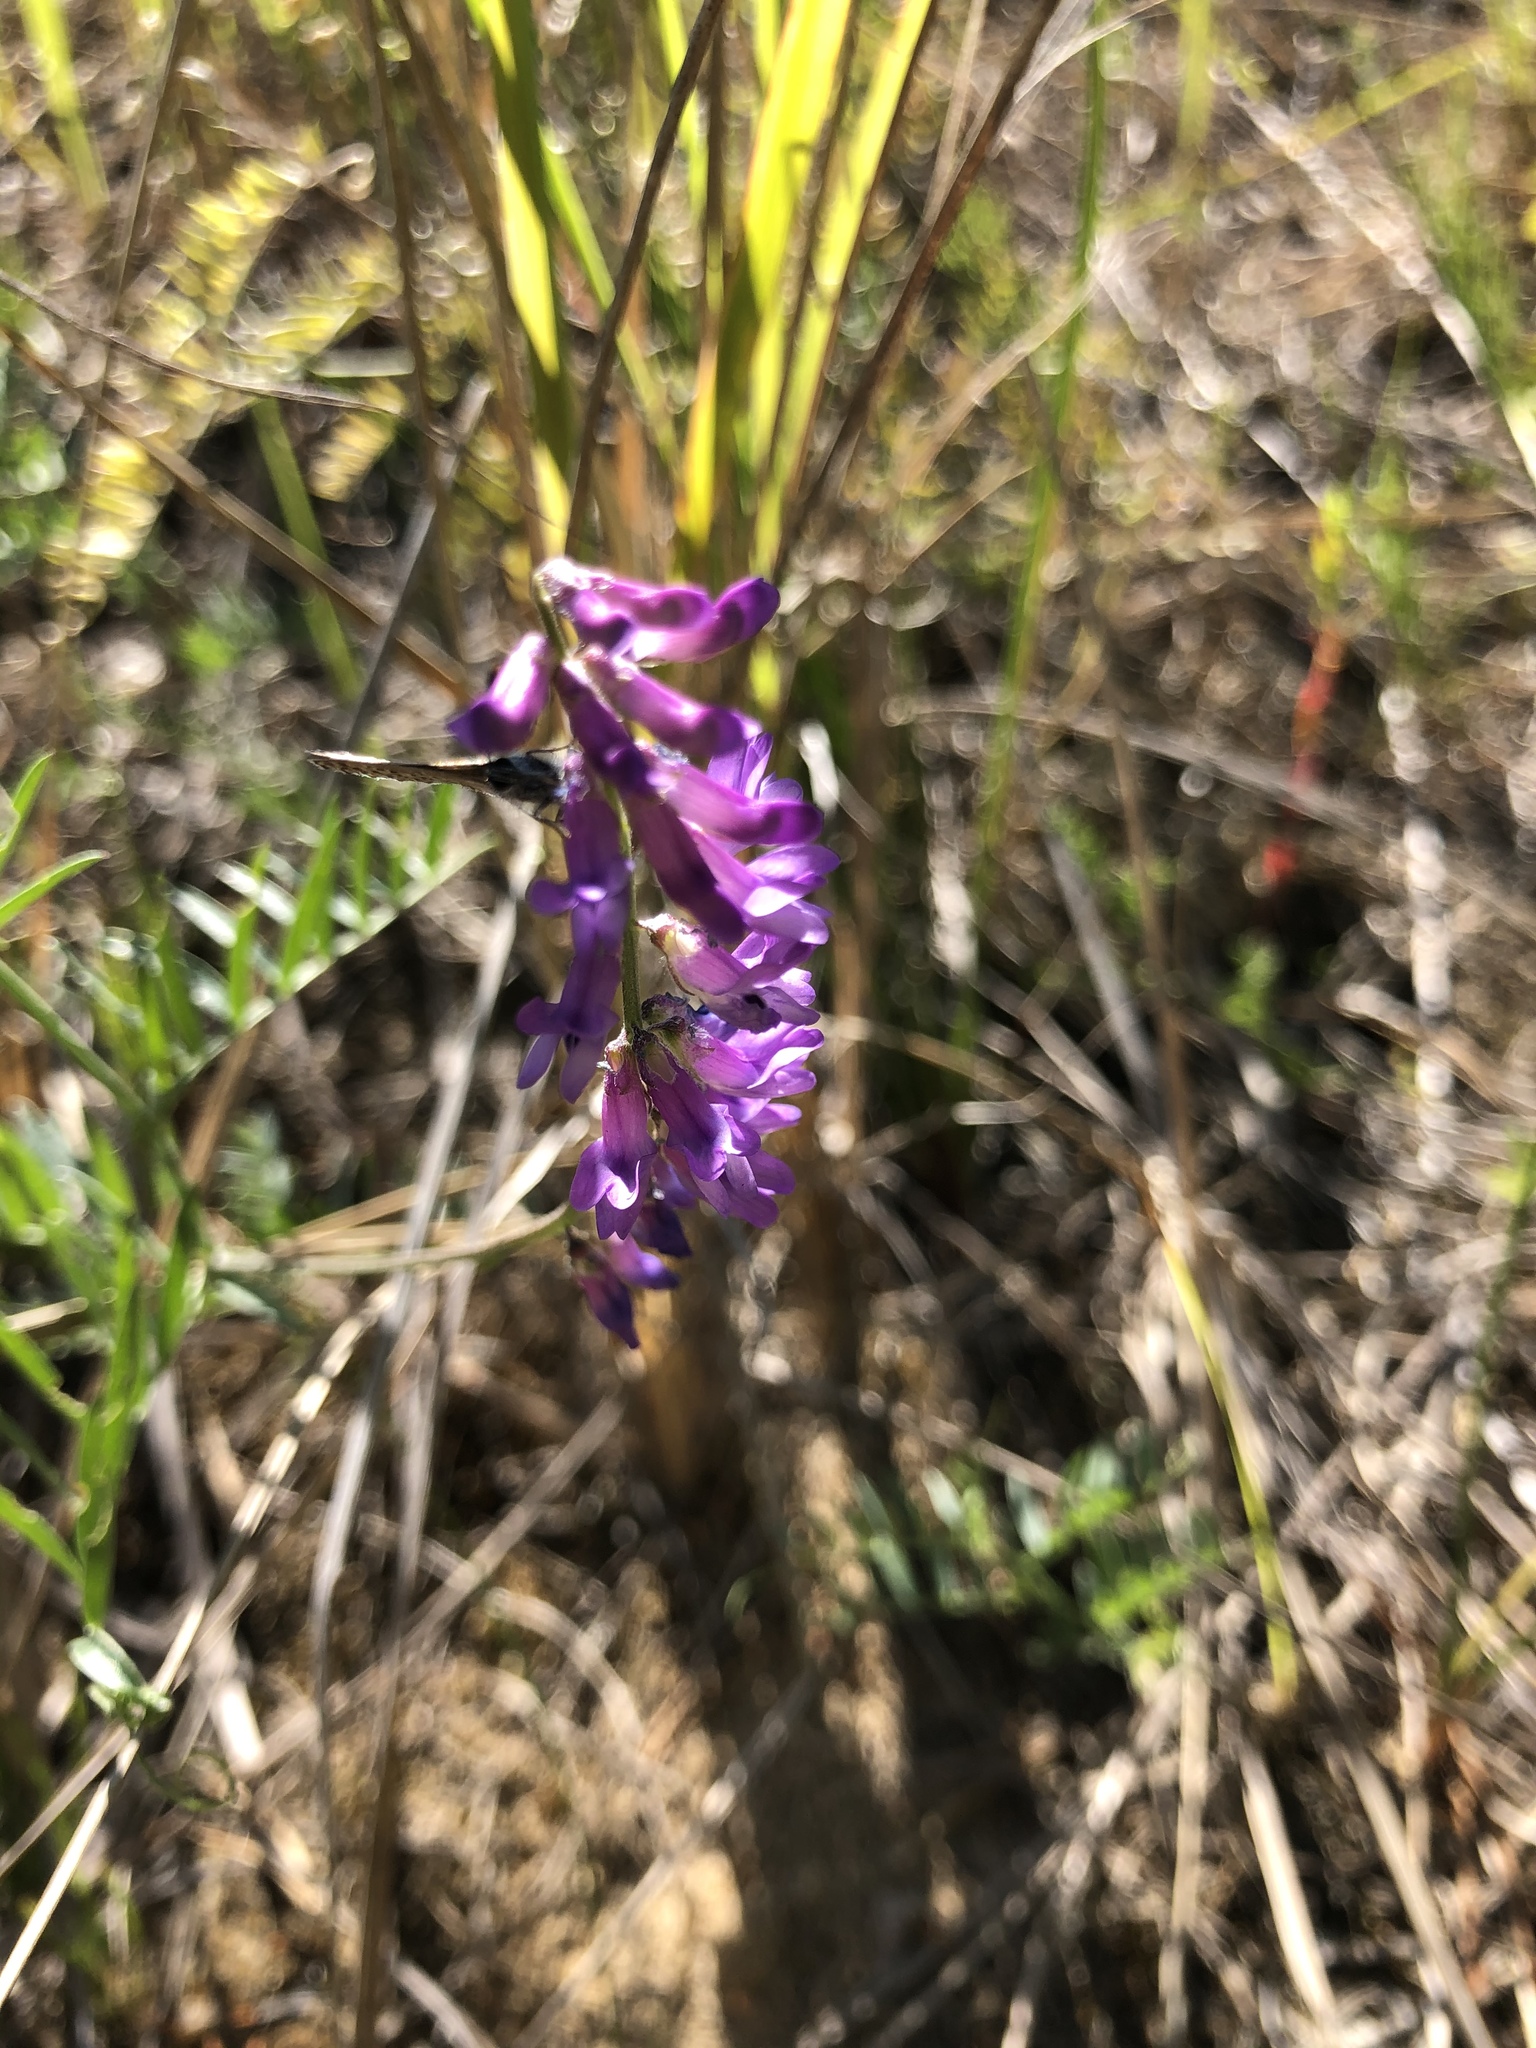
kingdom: Plantae
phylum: Tracheophyta
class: Magnoliopsida
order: Fabales
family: Fabaceae
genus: Vicia
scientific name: Vicia cracca
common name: Bird vetch
